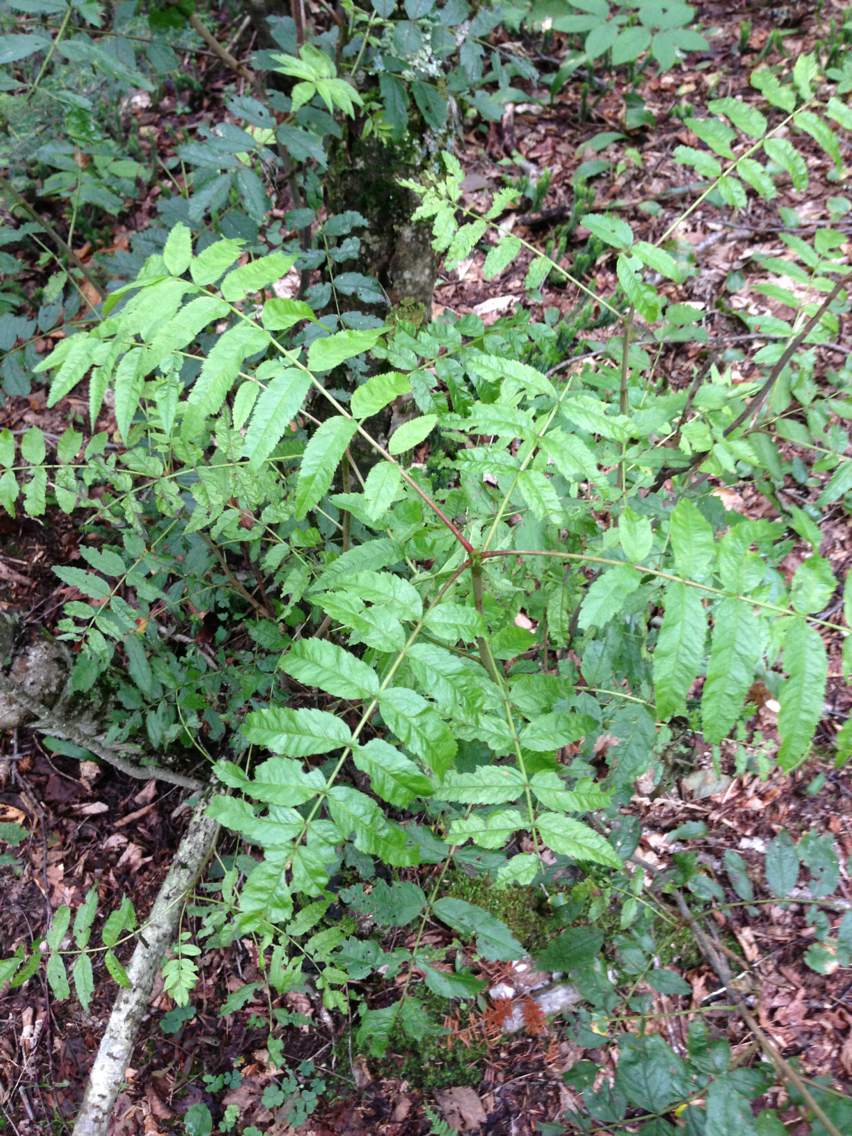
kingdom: Plantae
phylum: Tracheophyta
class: Magnoliopsida
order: Rosales
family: Rosaceae
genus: Sorbus
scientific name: Sorbus americana
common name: American mountain-ash
